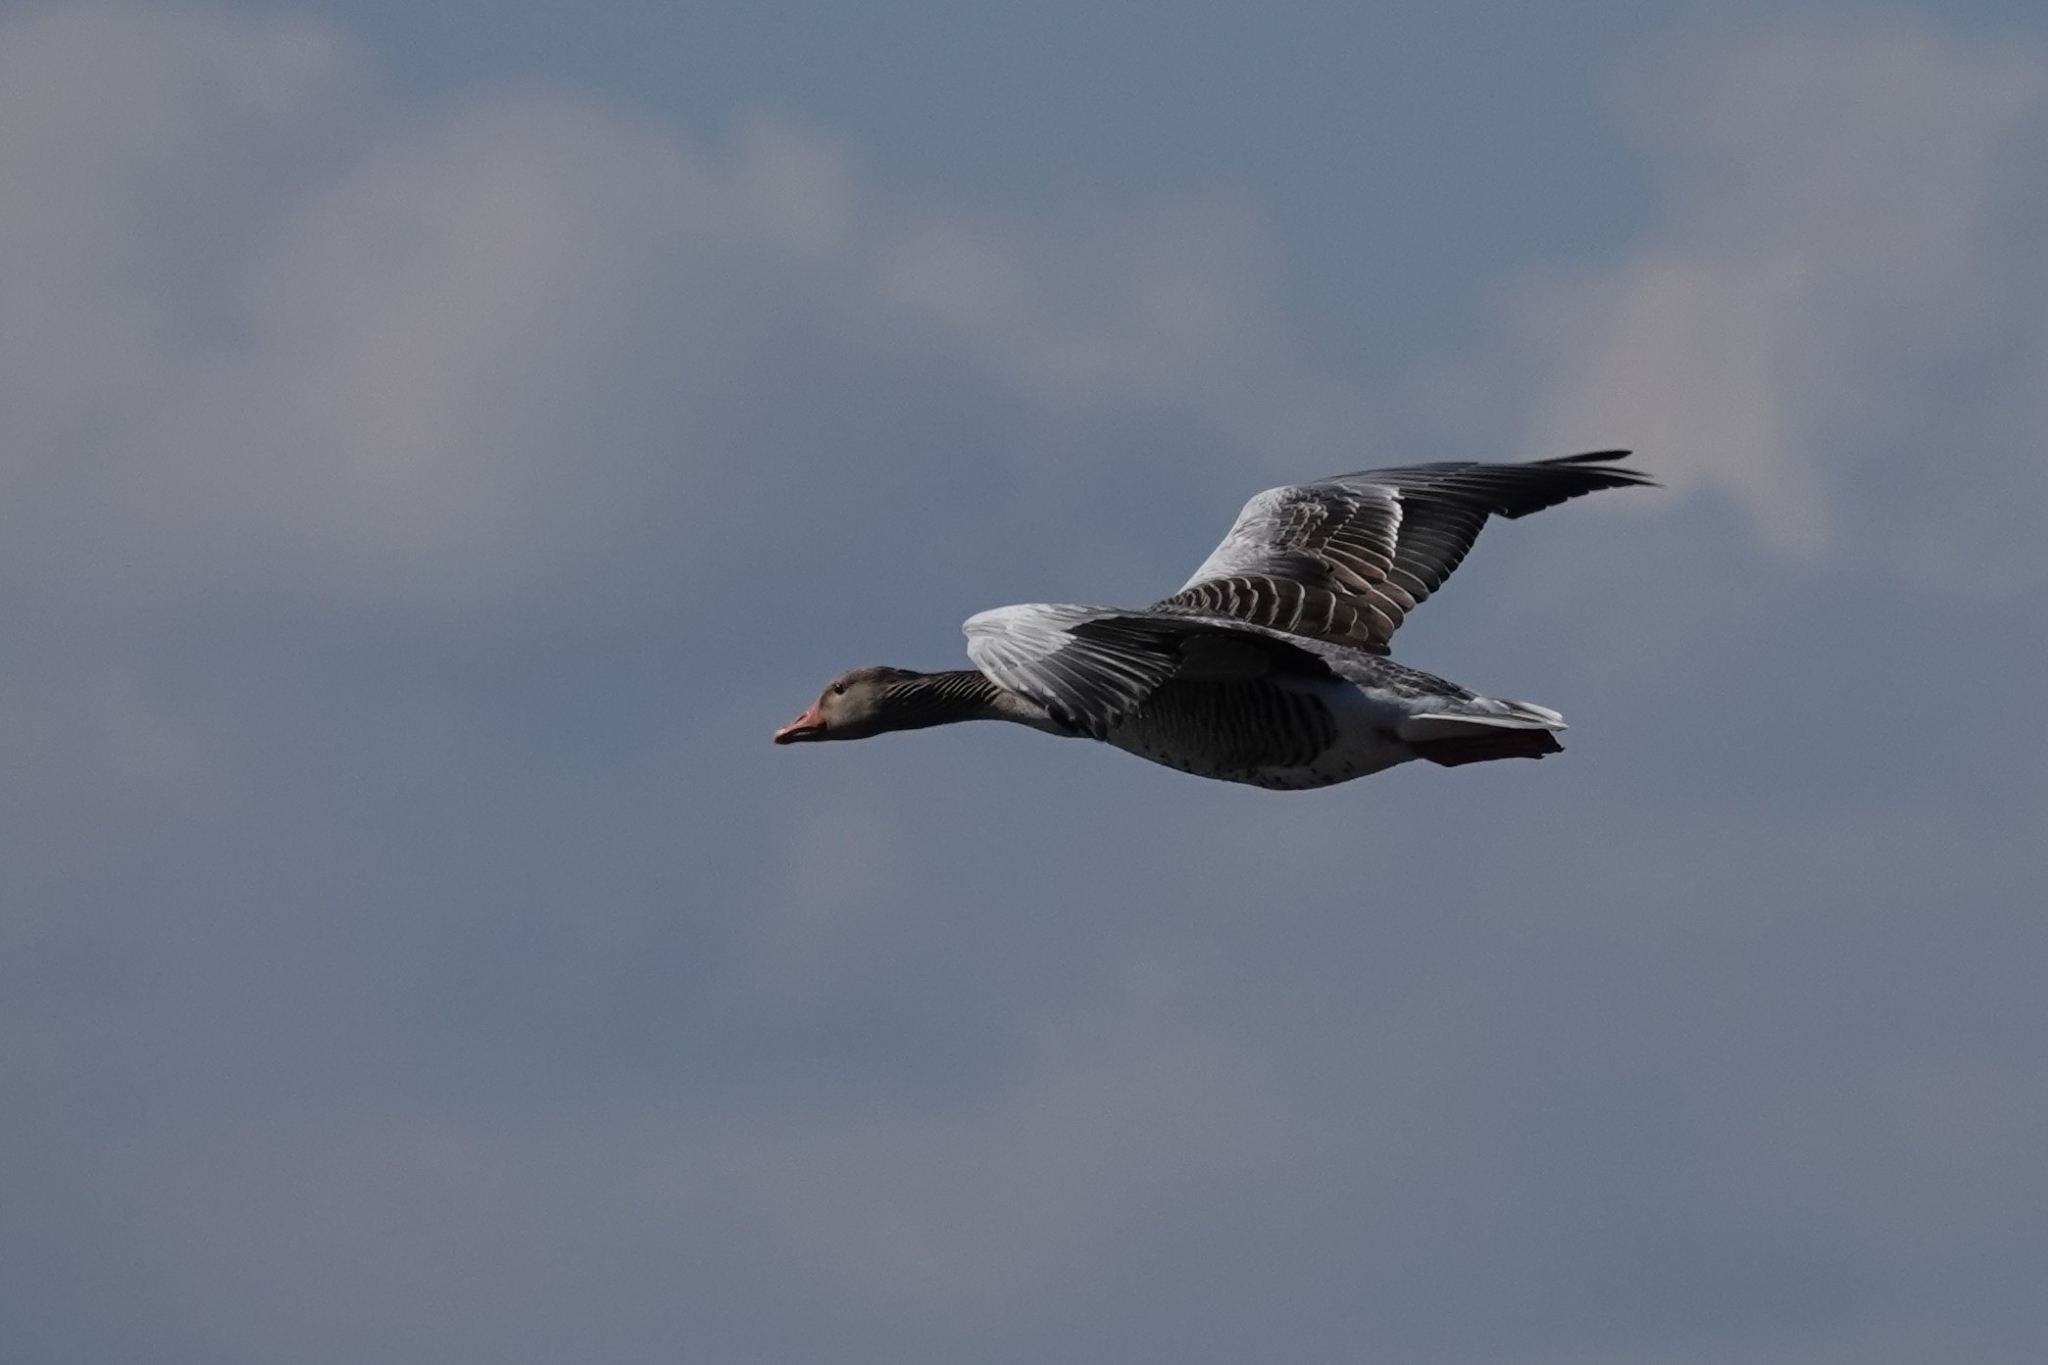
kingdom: Animalia
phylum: Chordata
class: Aves
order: Anseriformes
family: Anatidae
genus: Anser
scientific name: Anser anser
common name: Greylag goose
